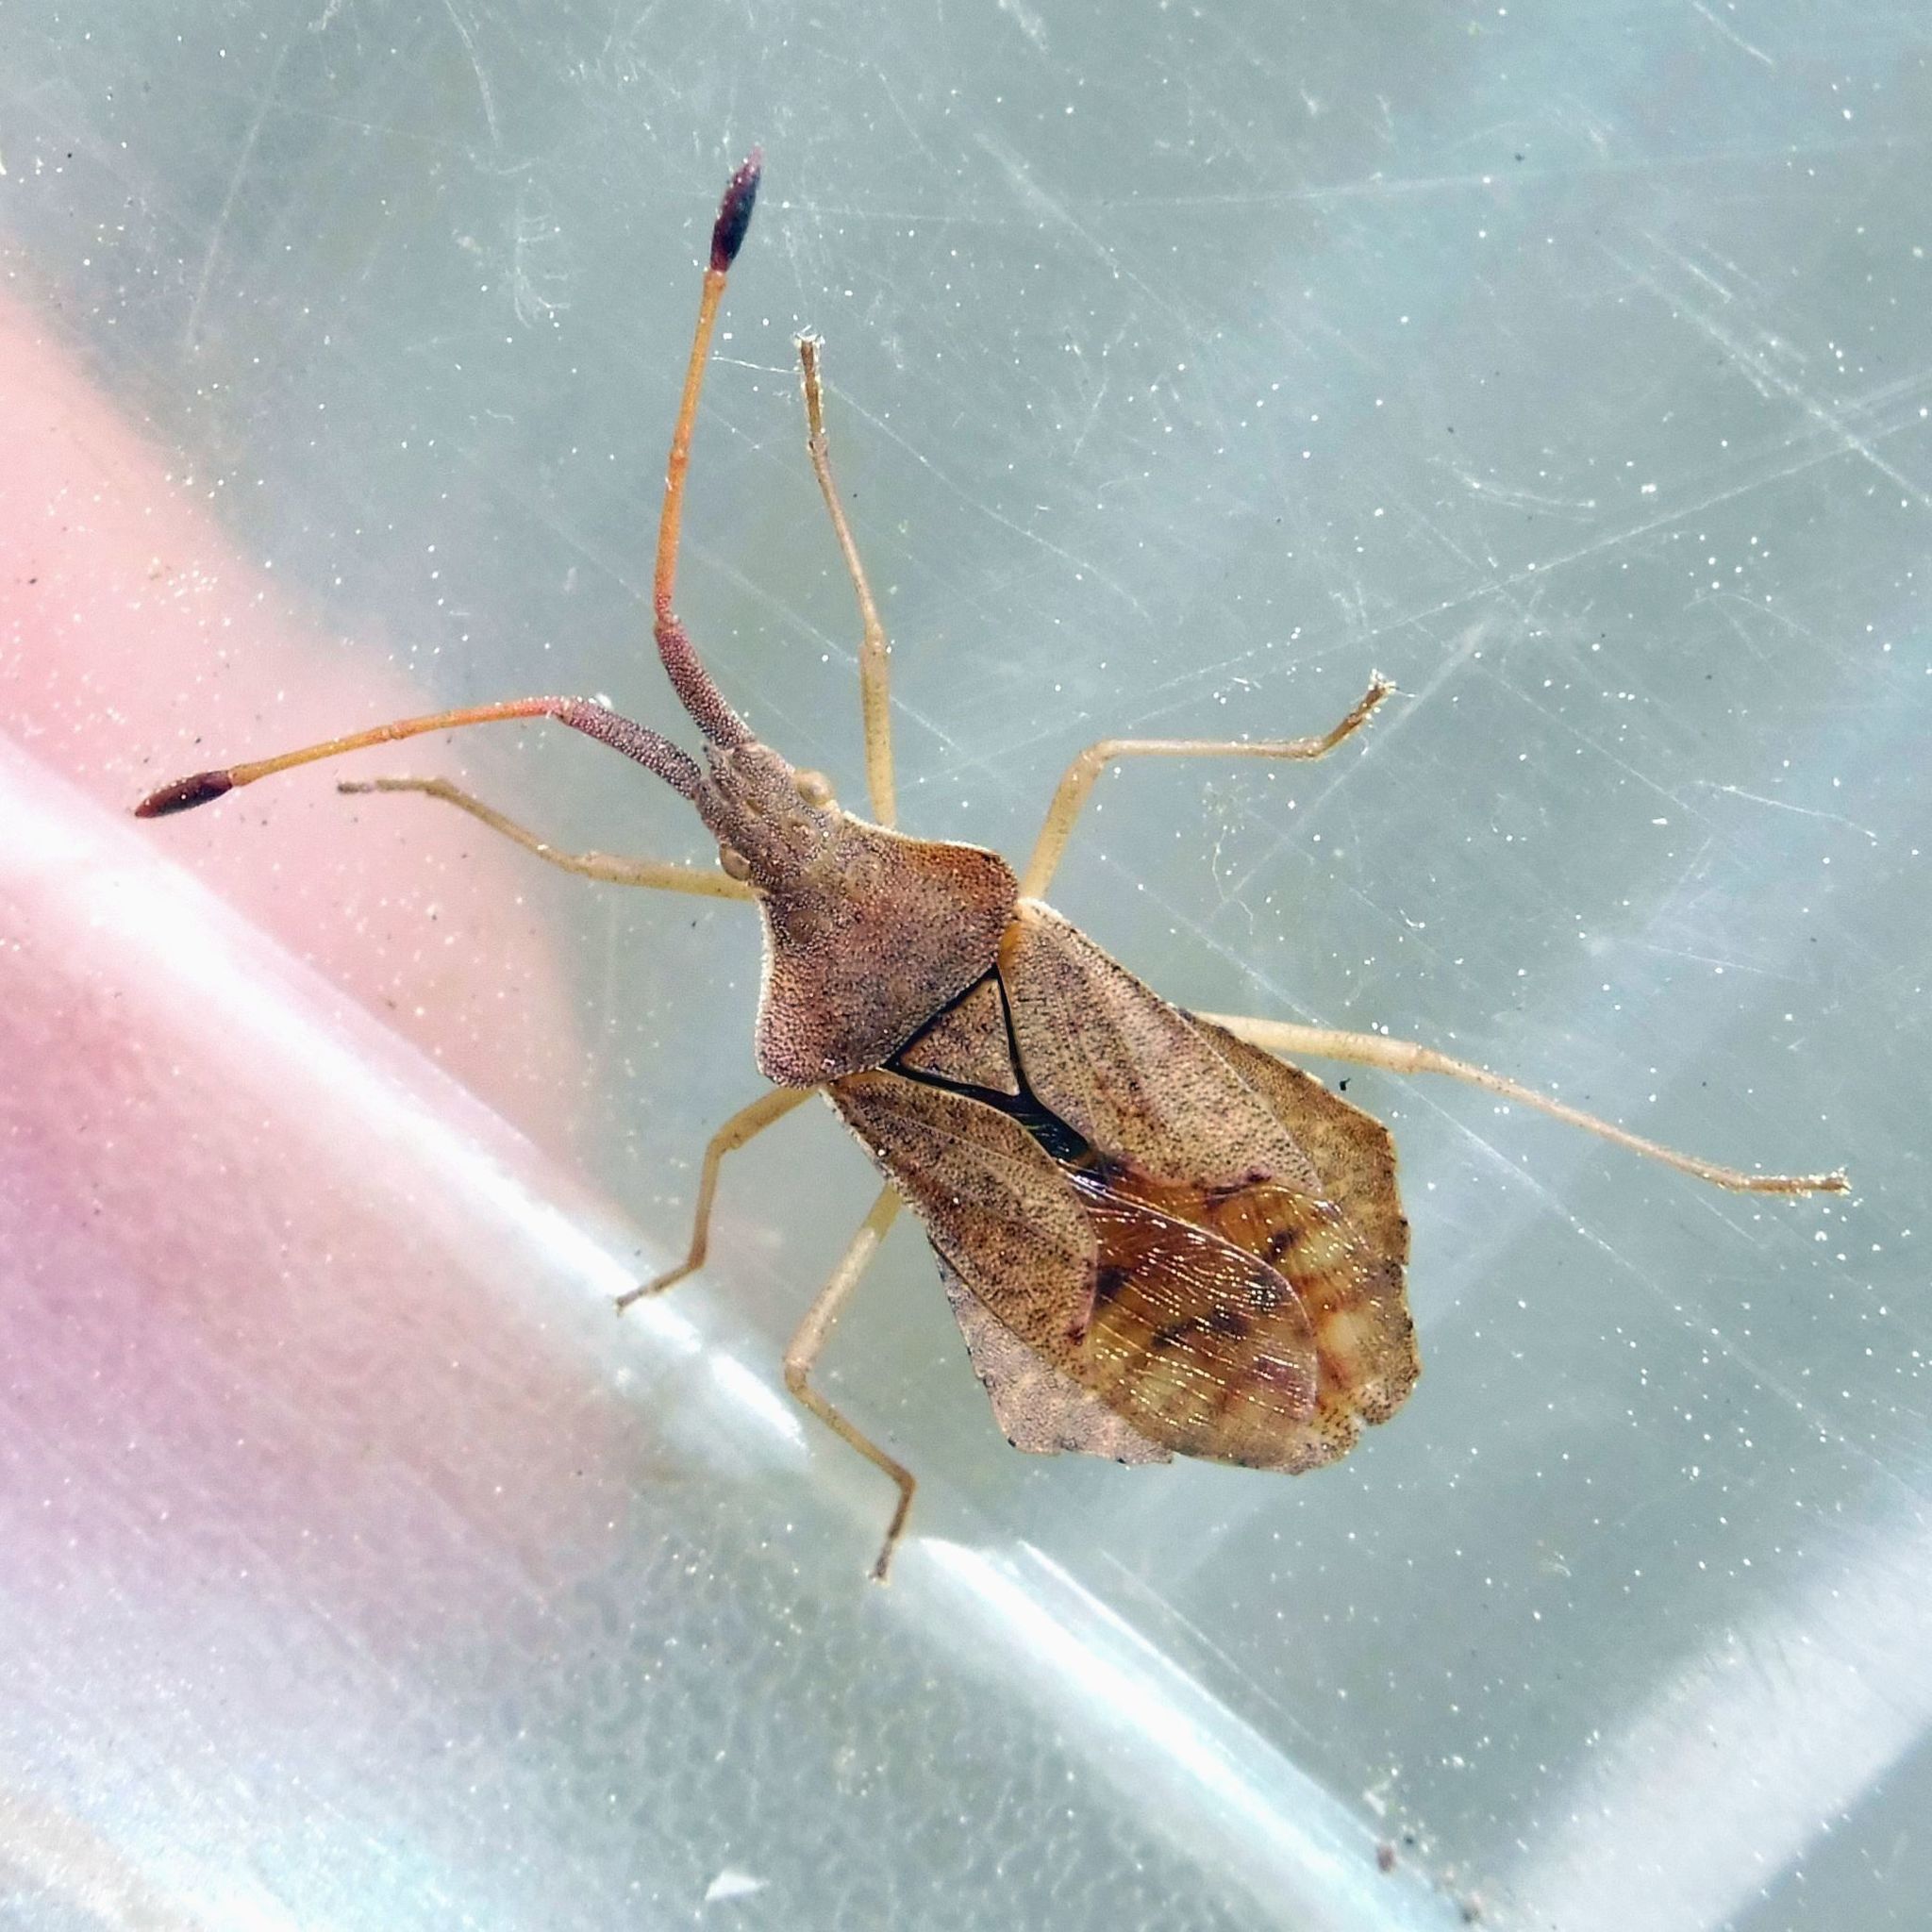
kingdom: Animalia
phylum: Arthropoda
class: Insecta
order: Hemiptera
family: Coreidae
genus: Syromastus
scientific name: Syromastus rhombeus
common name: Rhombic leatherbug
